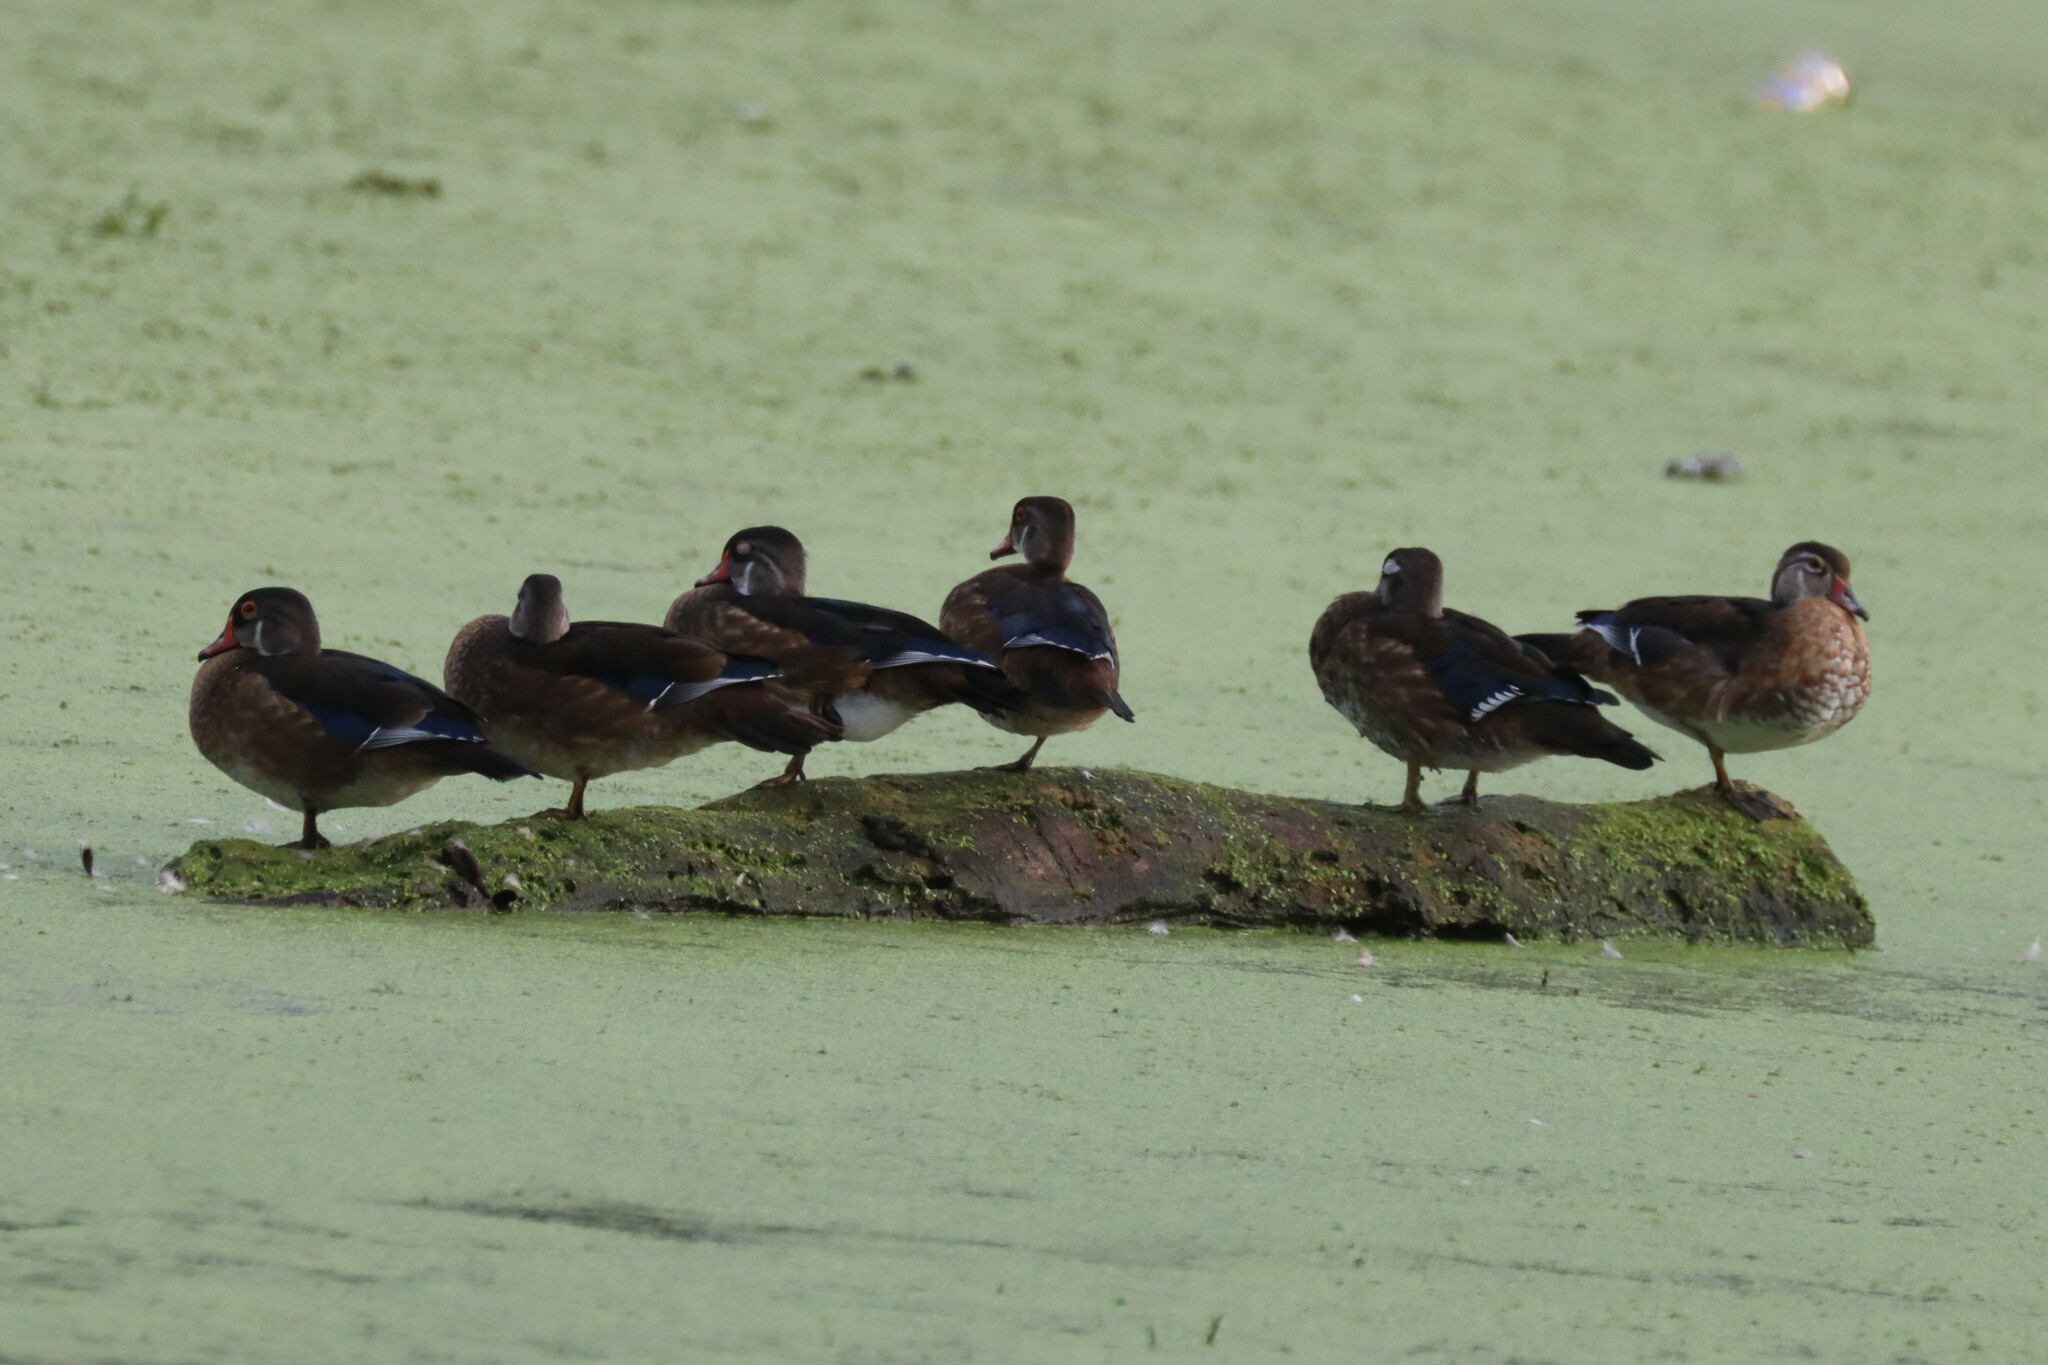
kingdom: Animalia
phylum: Chordata
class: Aves
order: Anseriformes
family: Anatidae
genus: Aix
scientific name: Aix sponsa
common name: Wood duck
